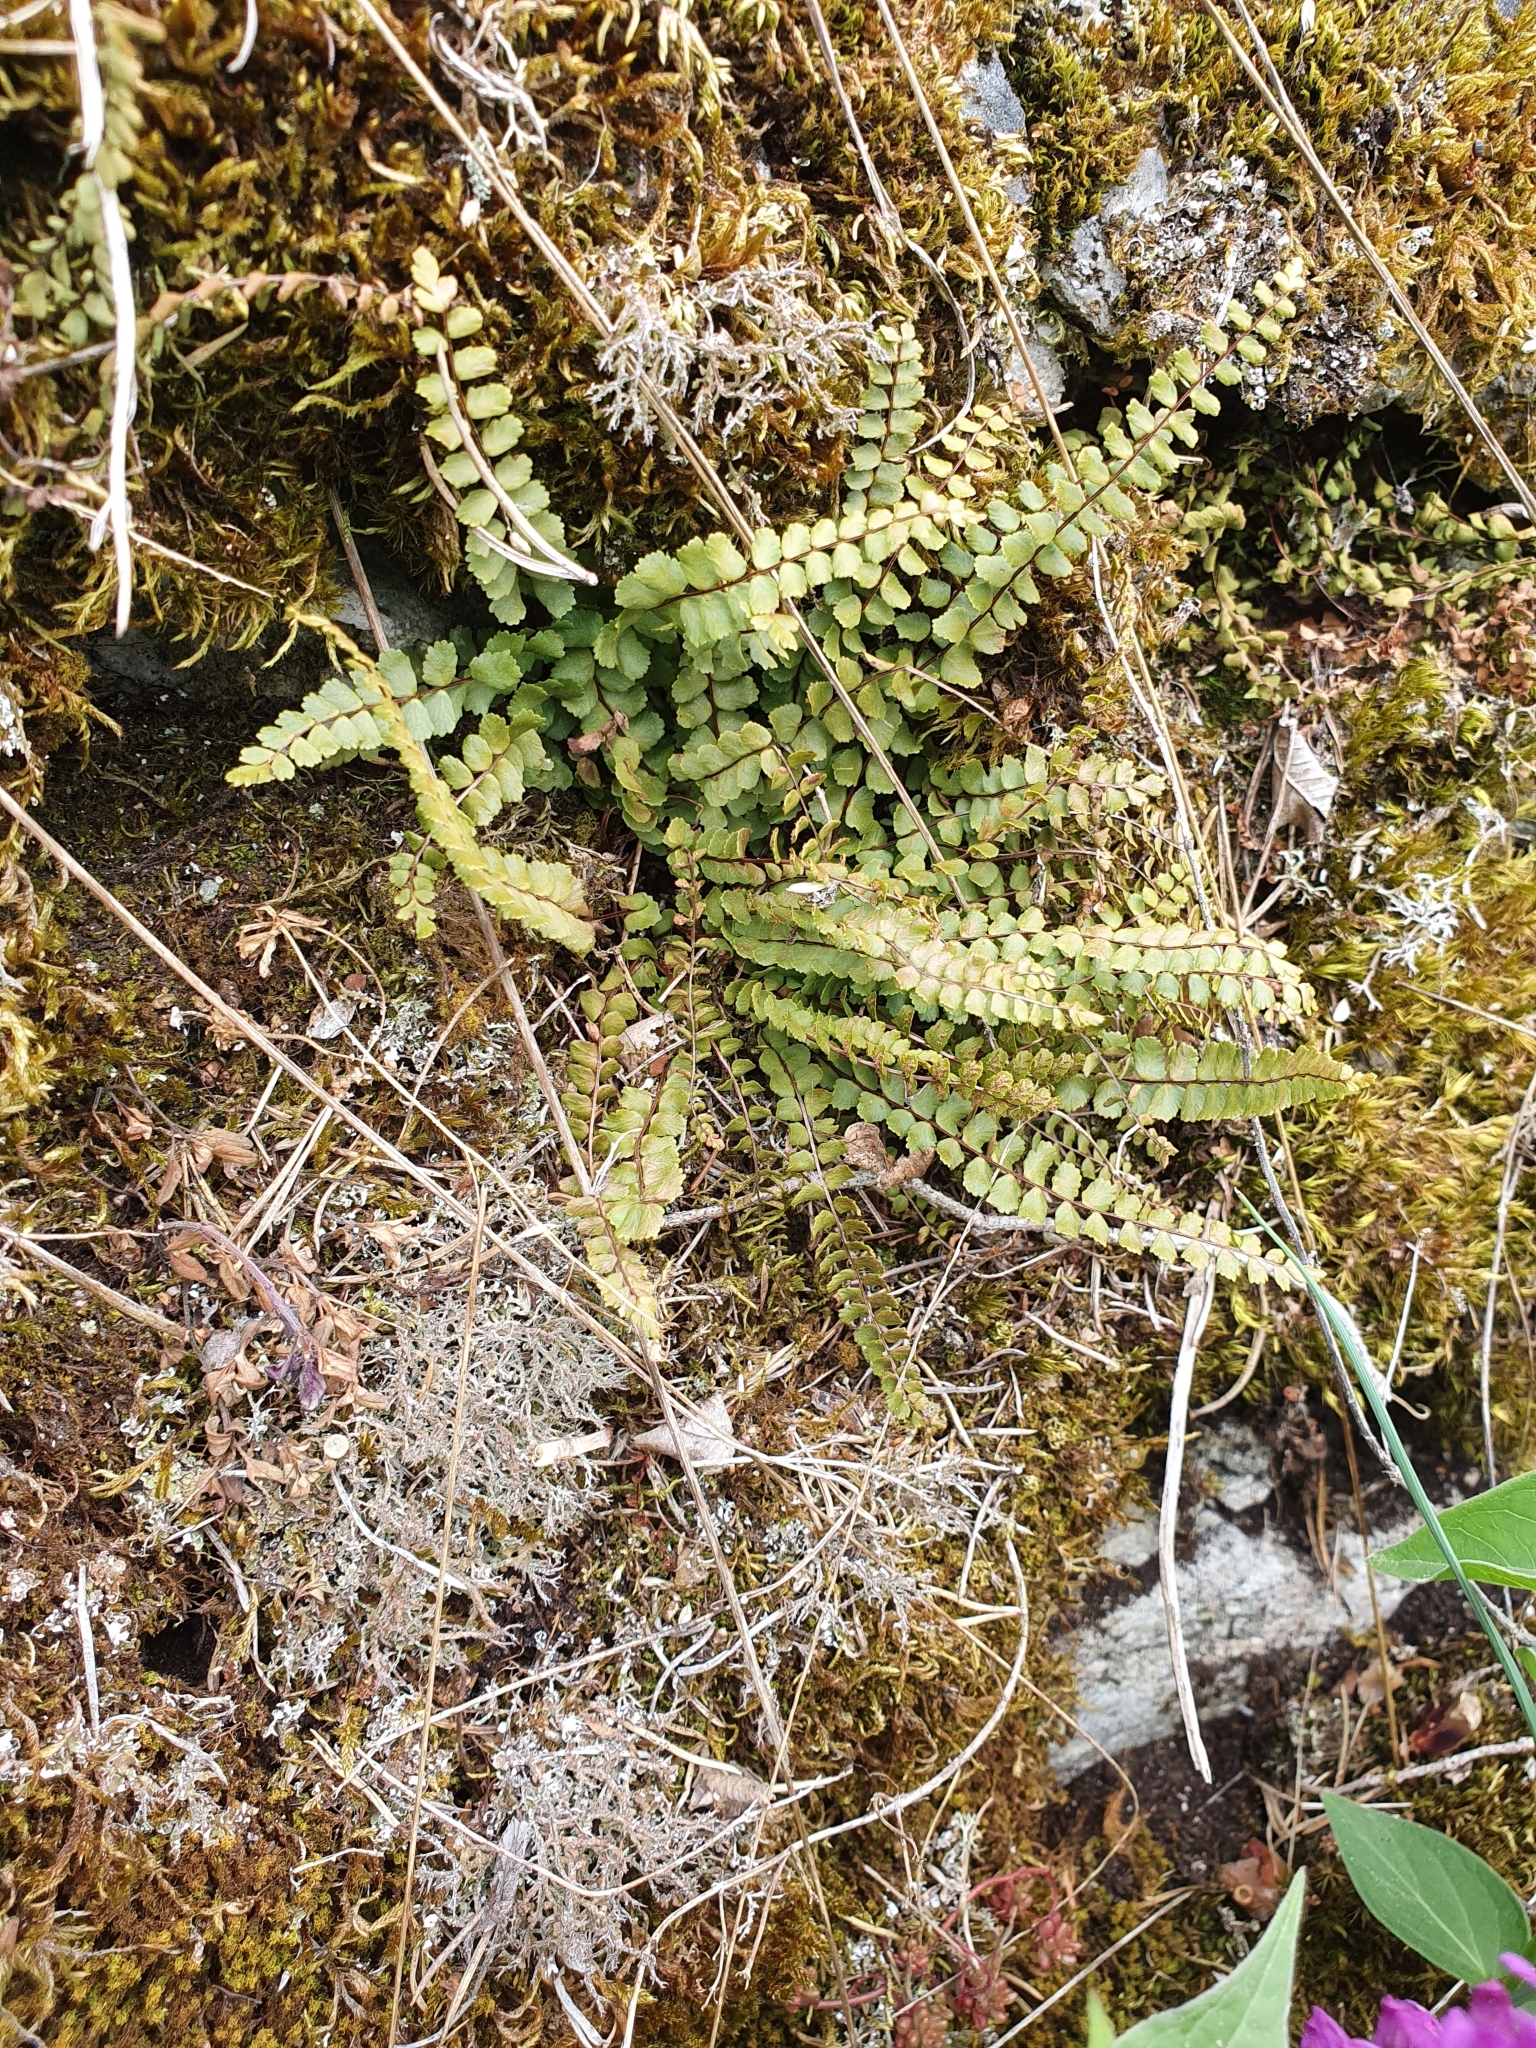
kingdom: Plantae
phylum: Tracheophyta
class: Polypodiopsida
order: Polypodiales
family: Aspleniaceae
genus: Asplenium
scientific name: Asplenium trichomanes
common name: Maidenhair spleenwort
